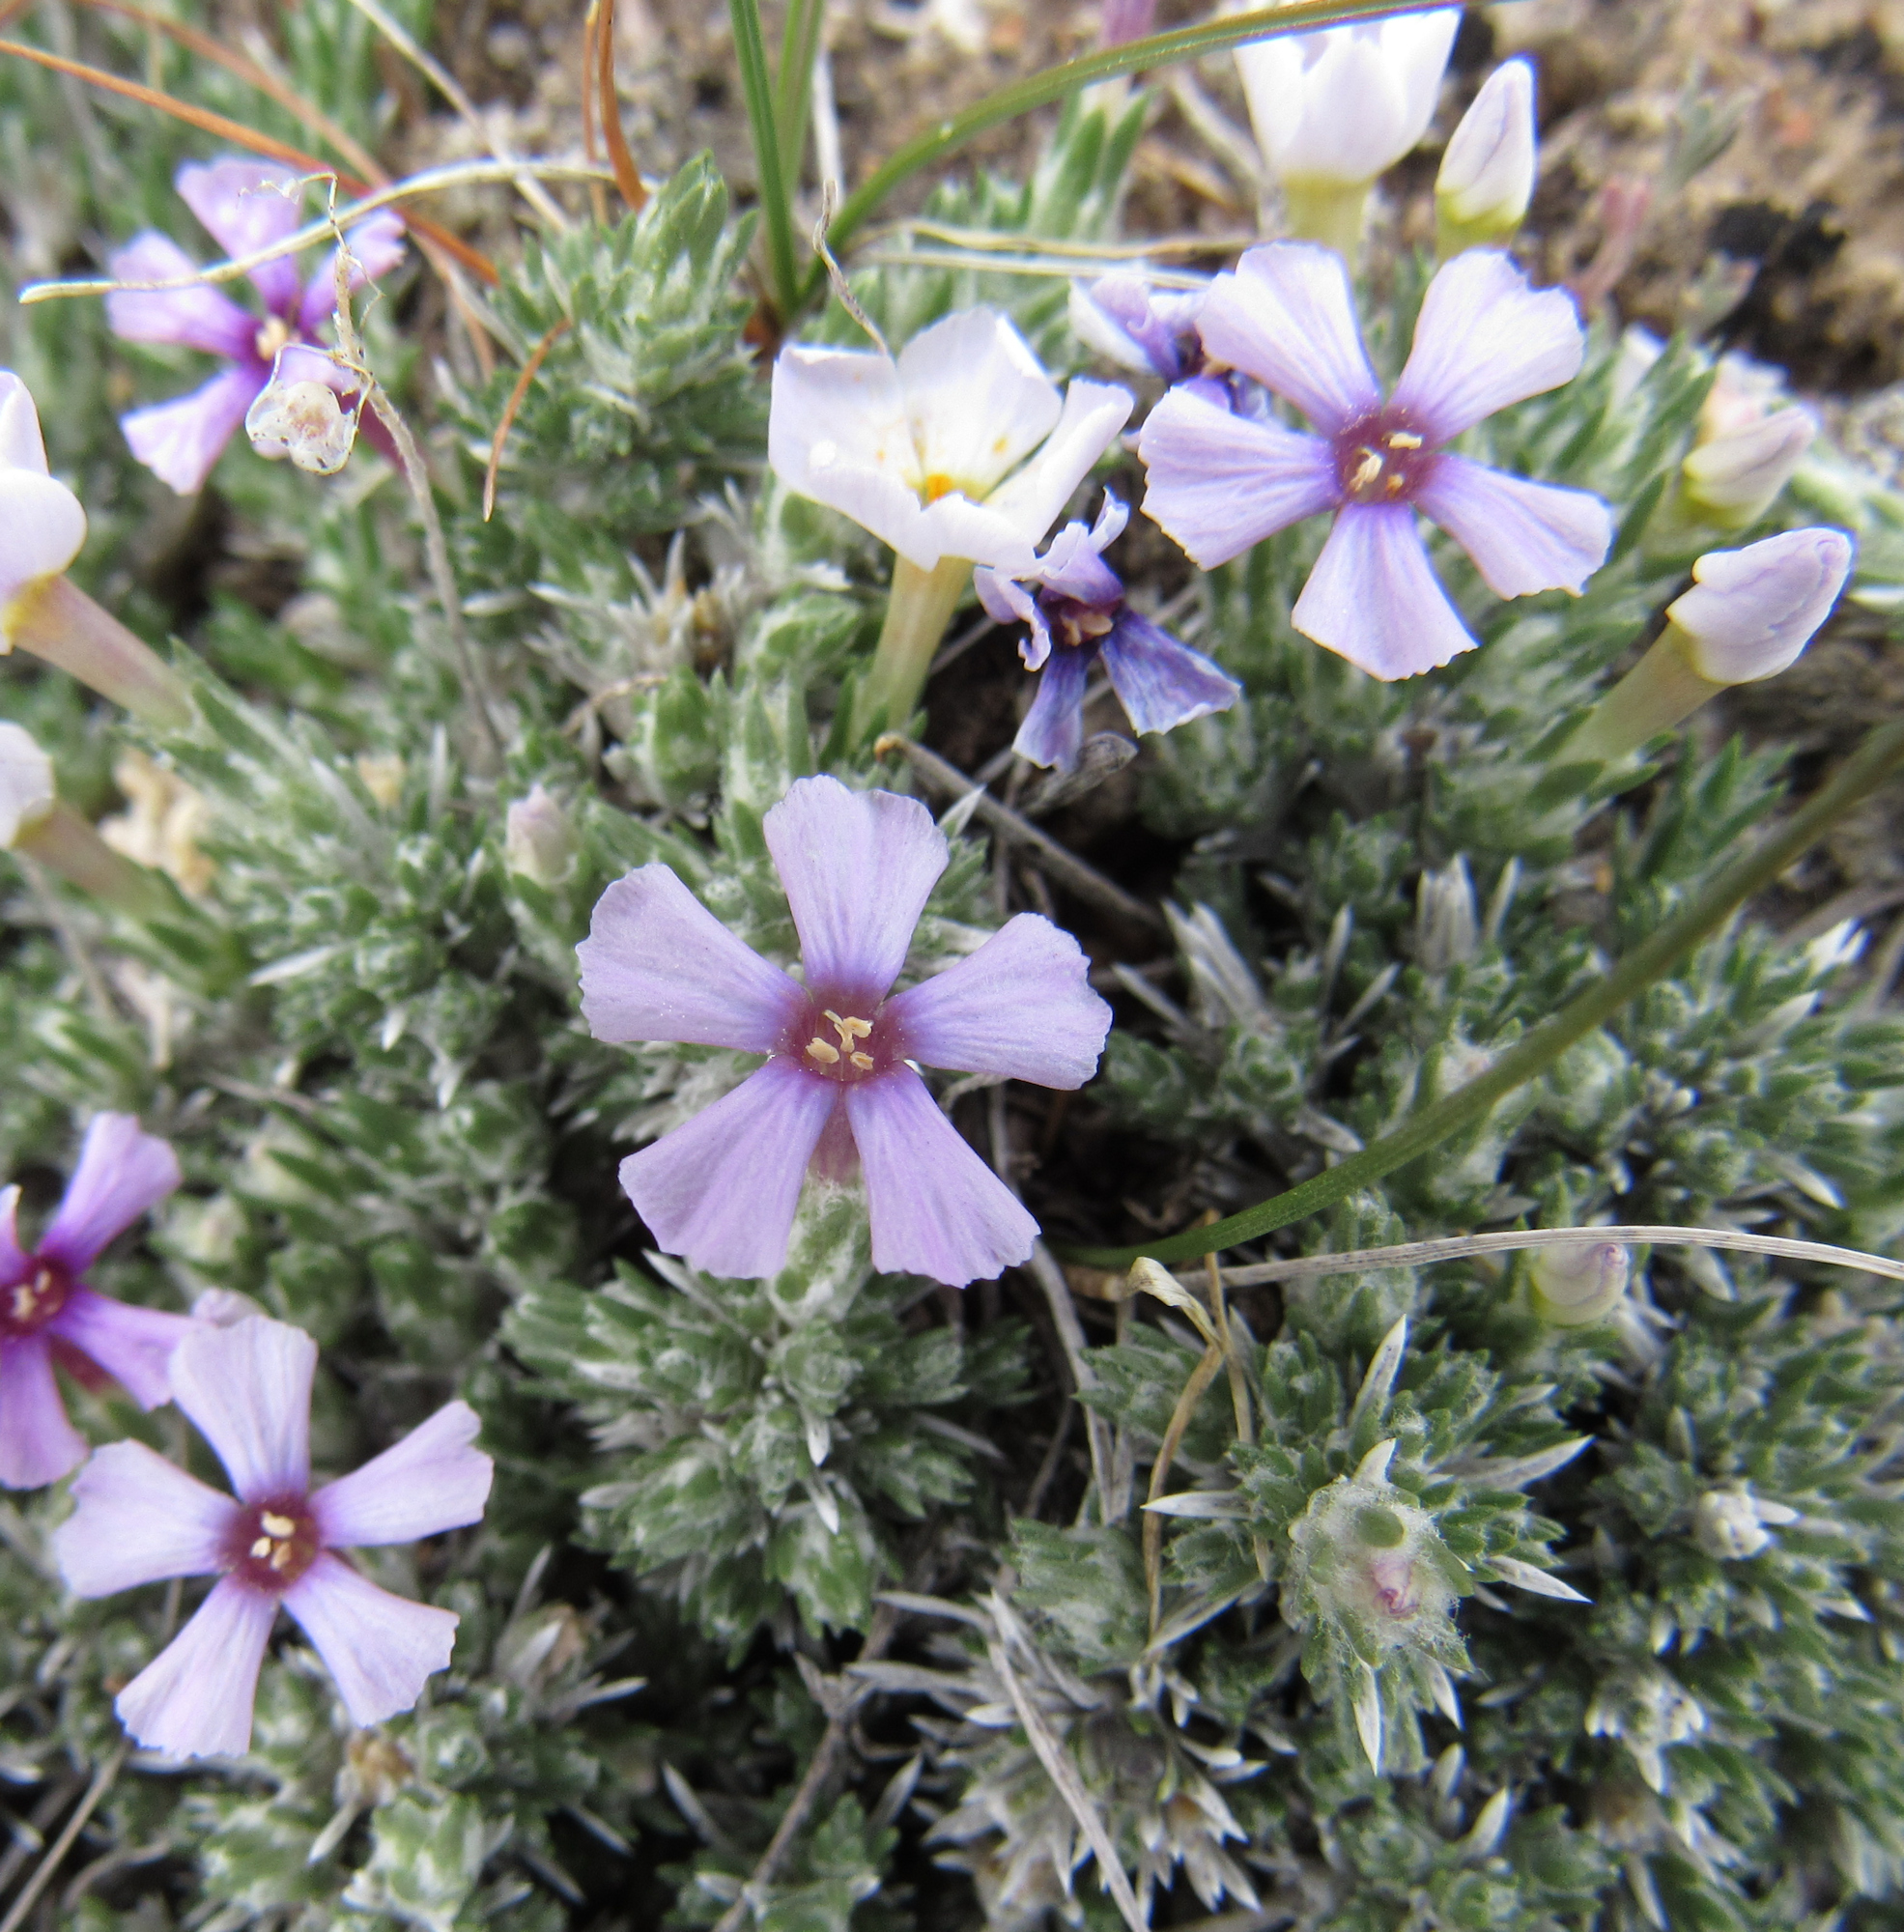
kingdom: Plantae
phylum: Tracheophyta
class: Magnoliopsida
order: Ericales
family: Polemoniaceae
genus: Phlox
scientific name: Phlox hoodii
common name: Moss phlox
